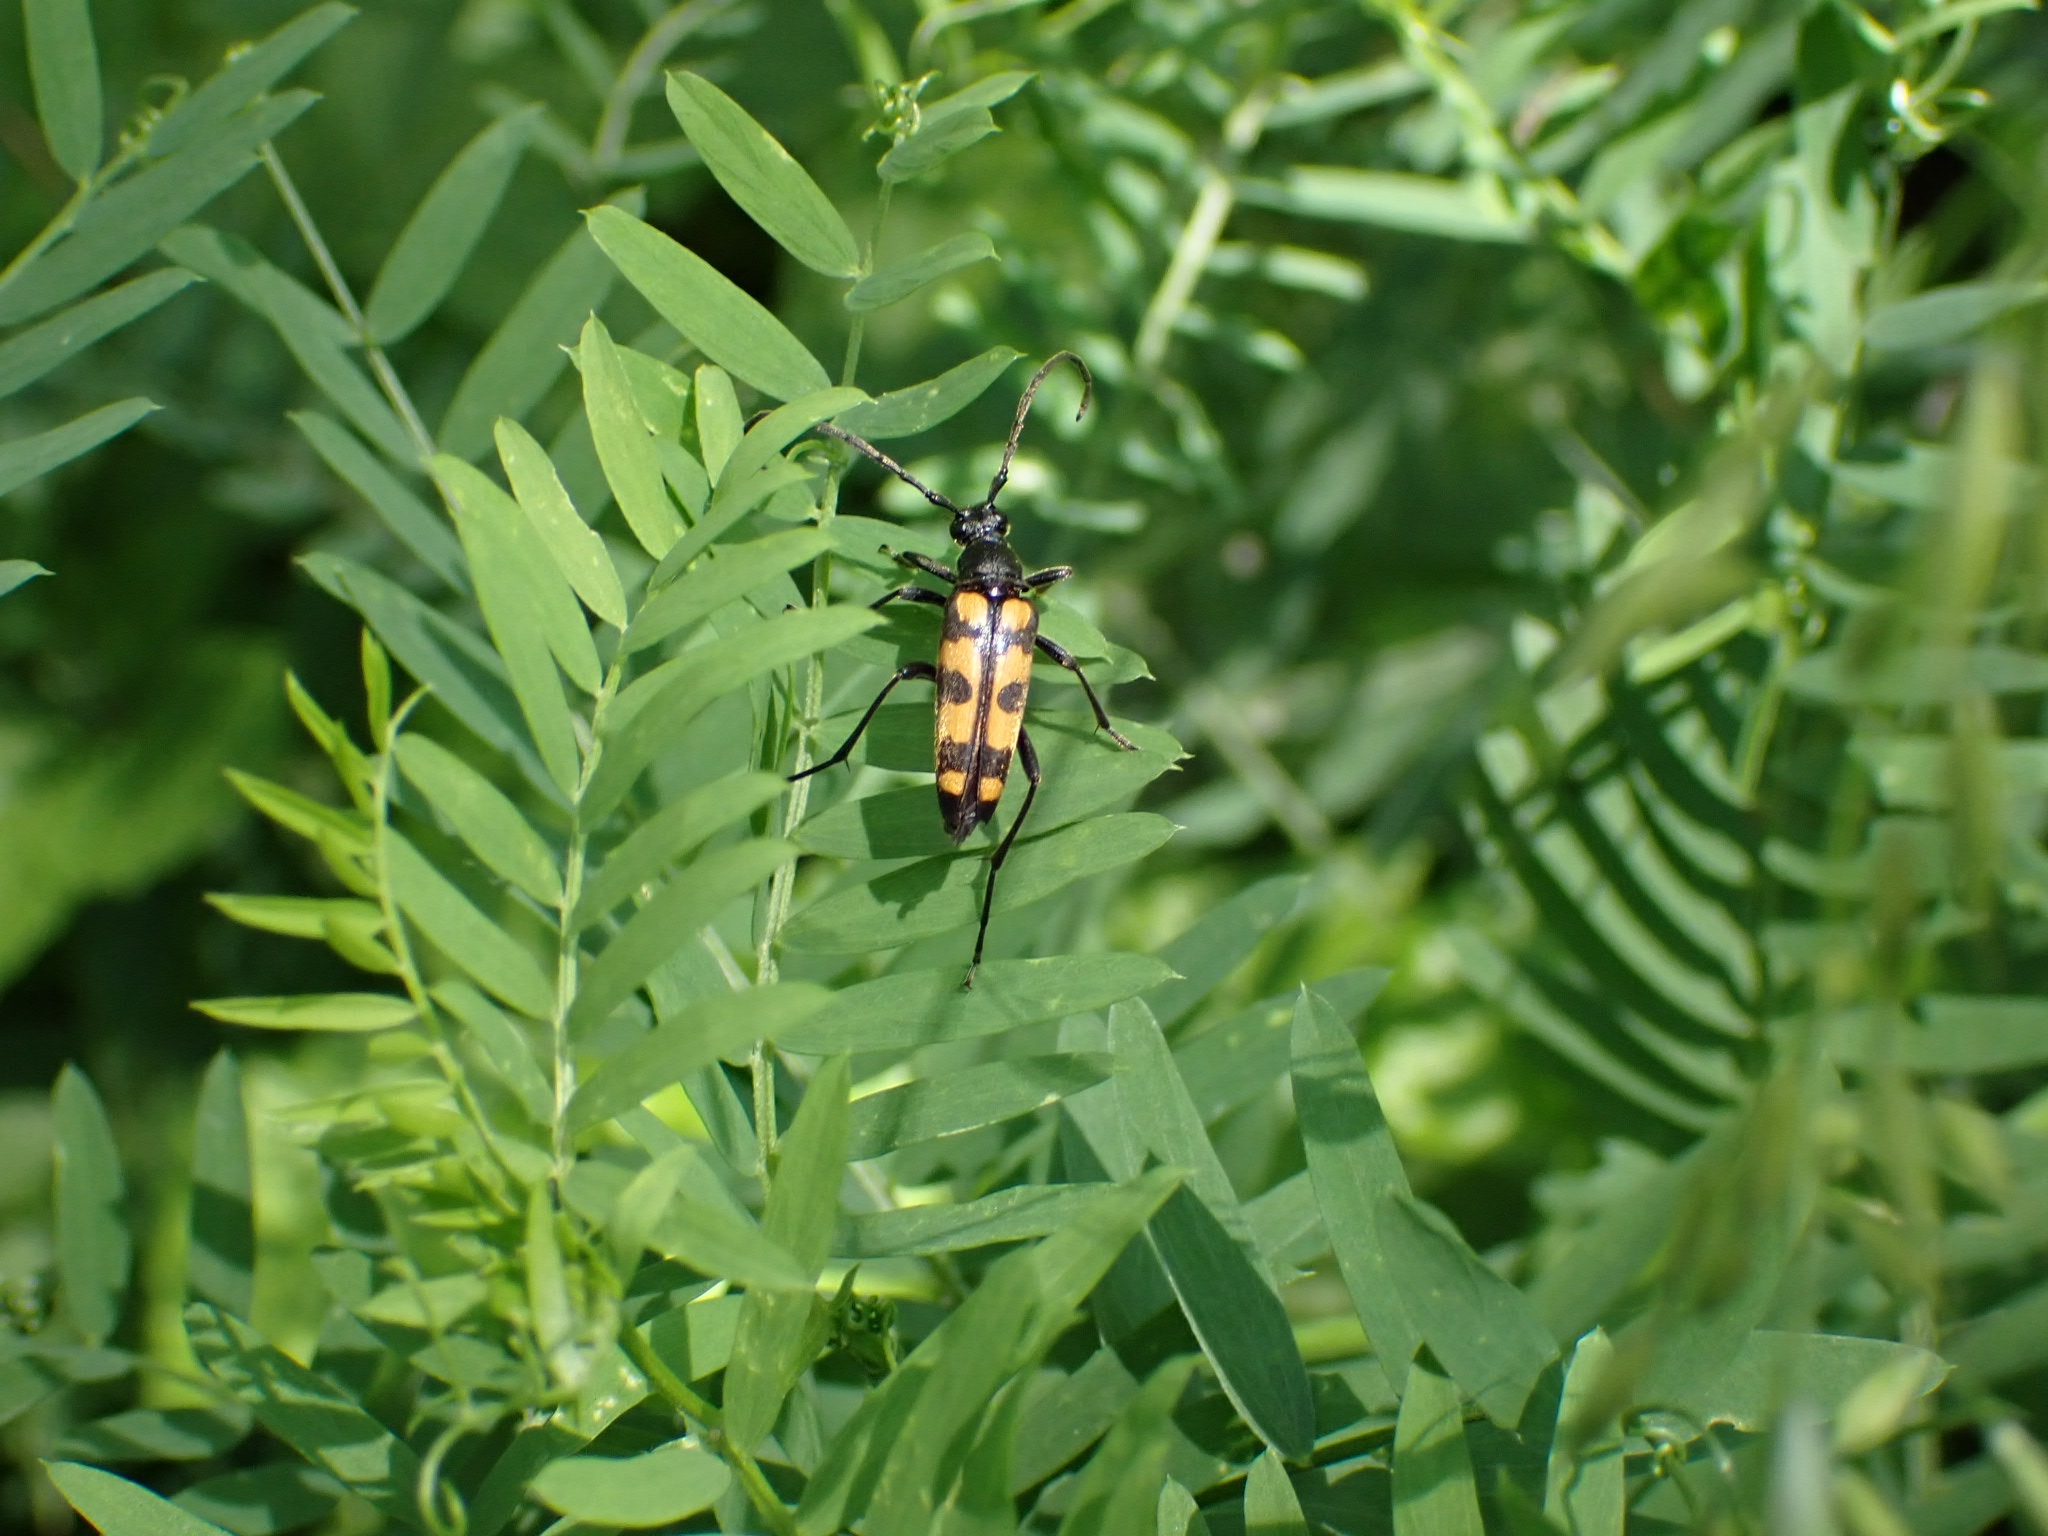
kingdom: Animalia
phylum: Arthropoda
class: Insecta
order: Coleoptera
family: Cerambycidae
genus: Leptura
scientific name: Leptura quadrifasciata
